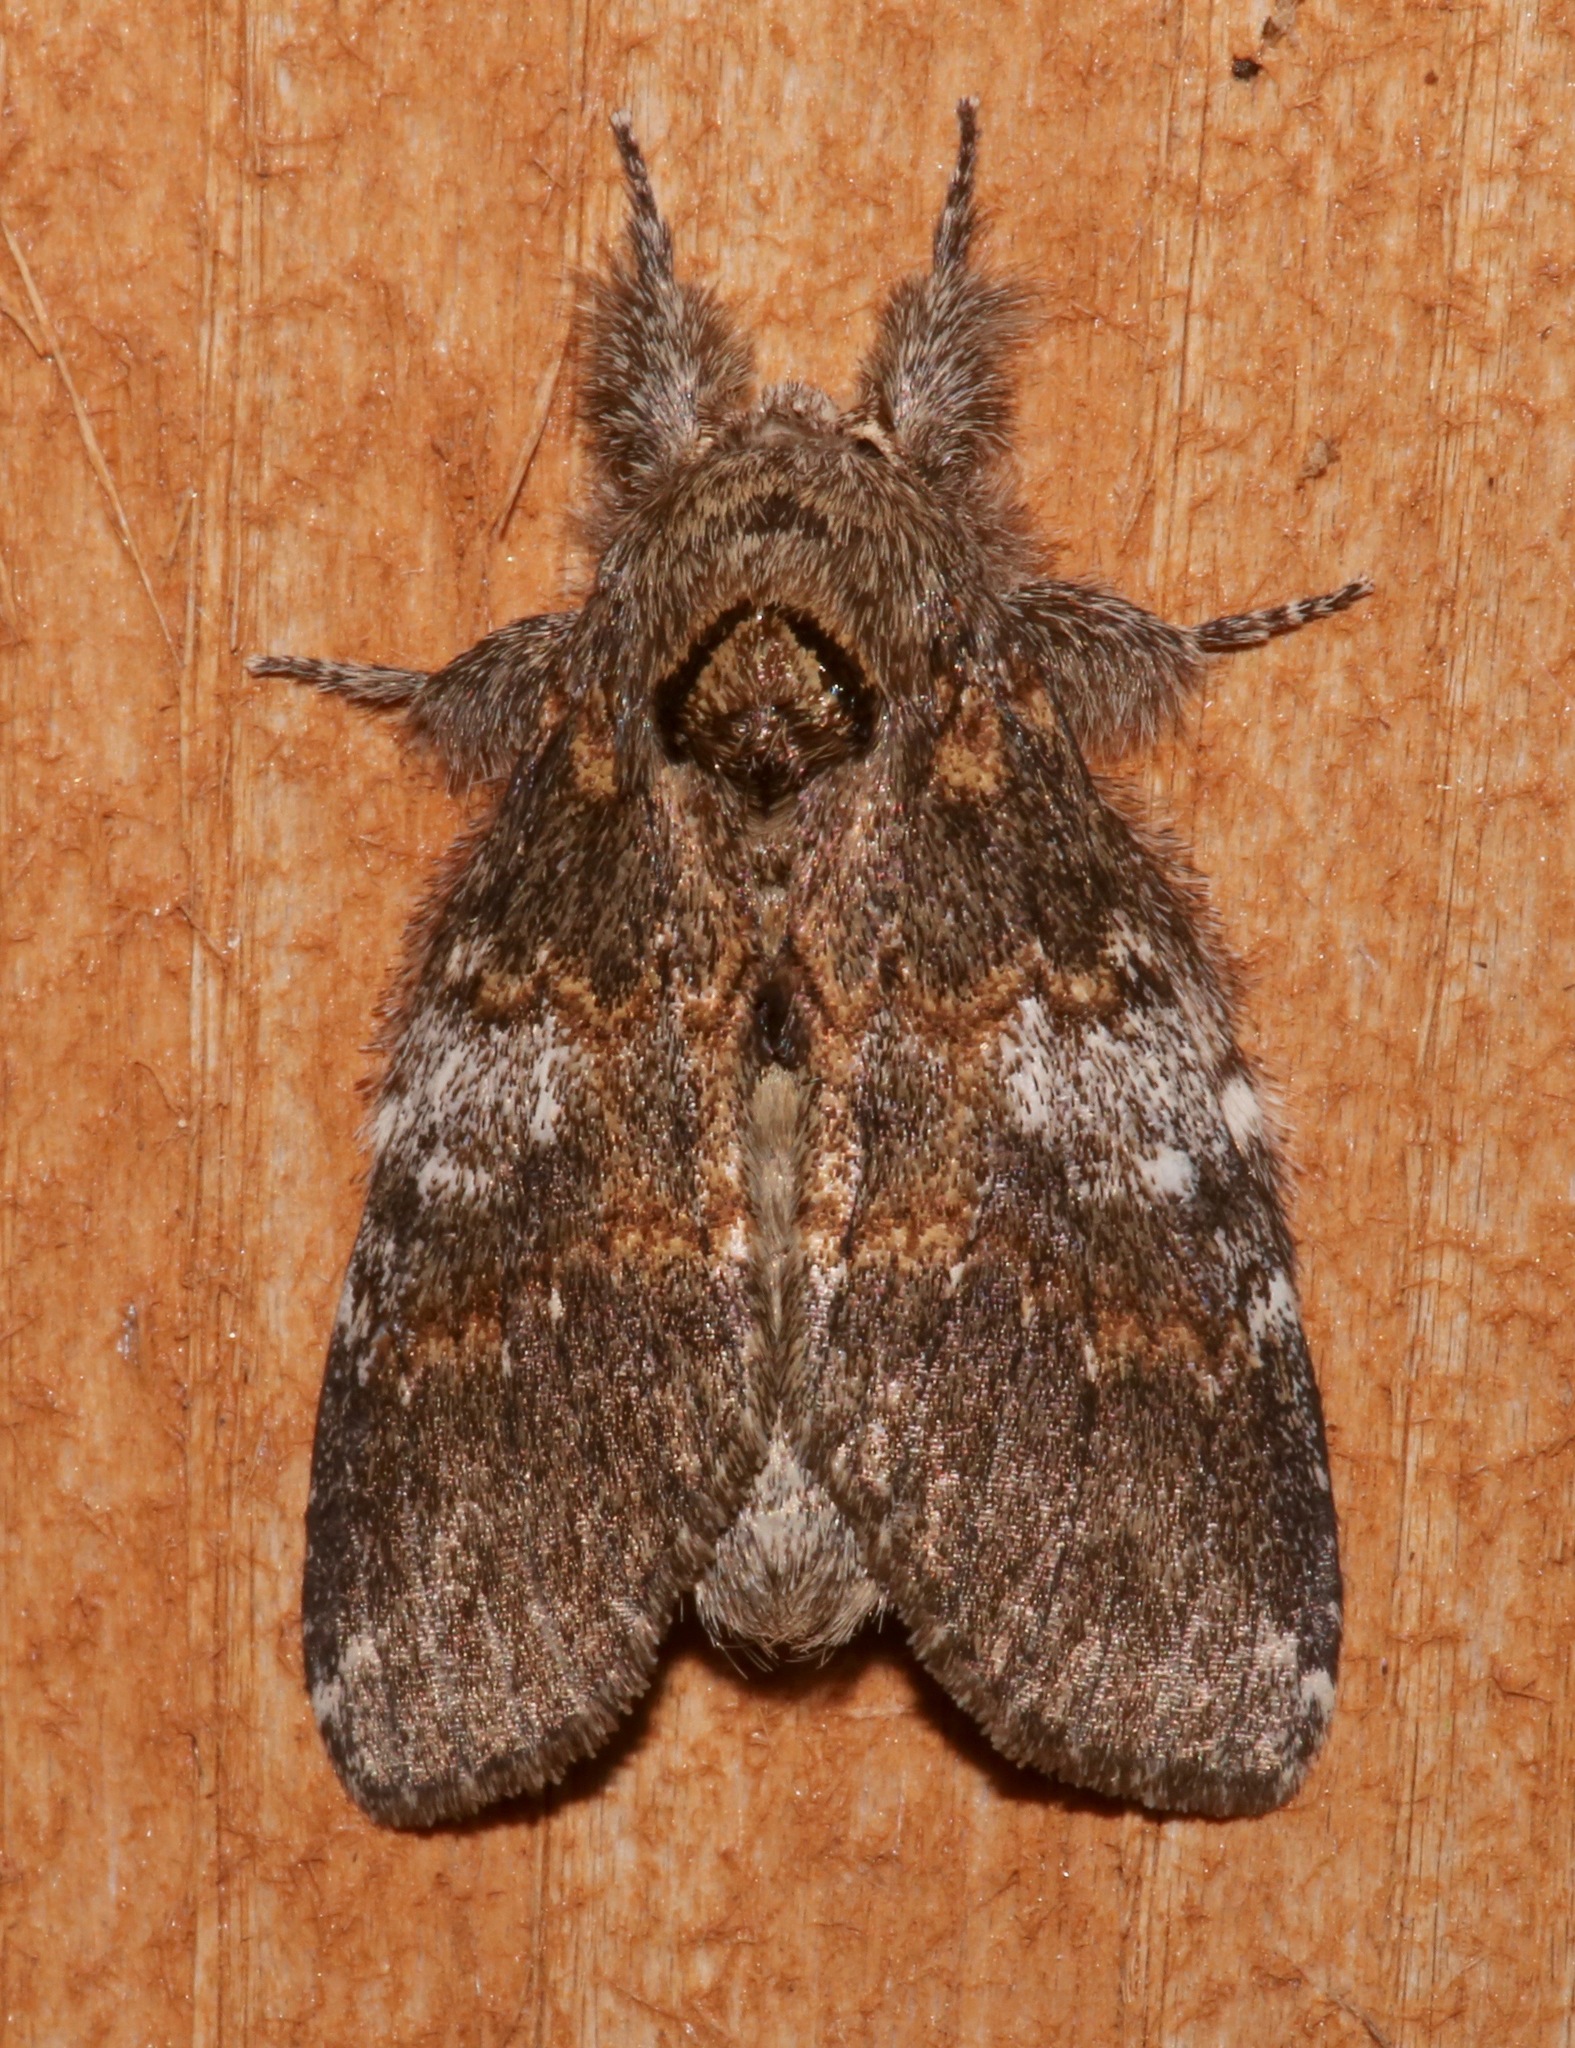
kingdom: Animalia
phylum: Arthropoda
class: Insecta
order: Lepidoptera
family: Notodontidae
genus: Peridea
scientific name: Peridea angulosa
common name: Angulose prominent
